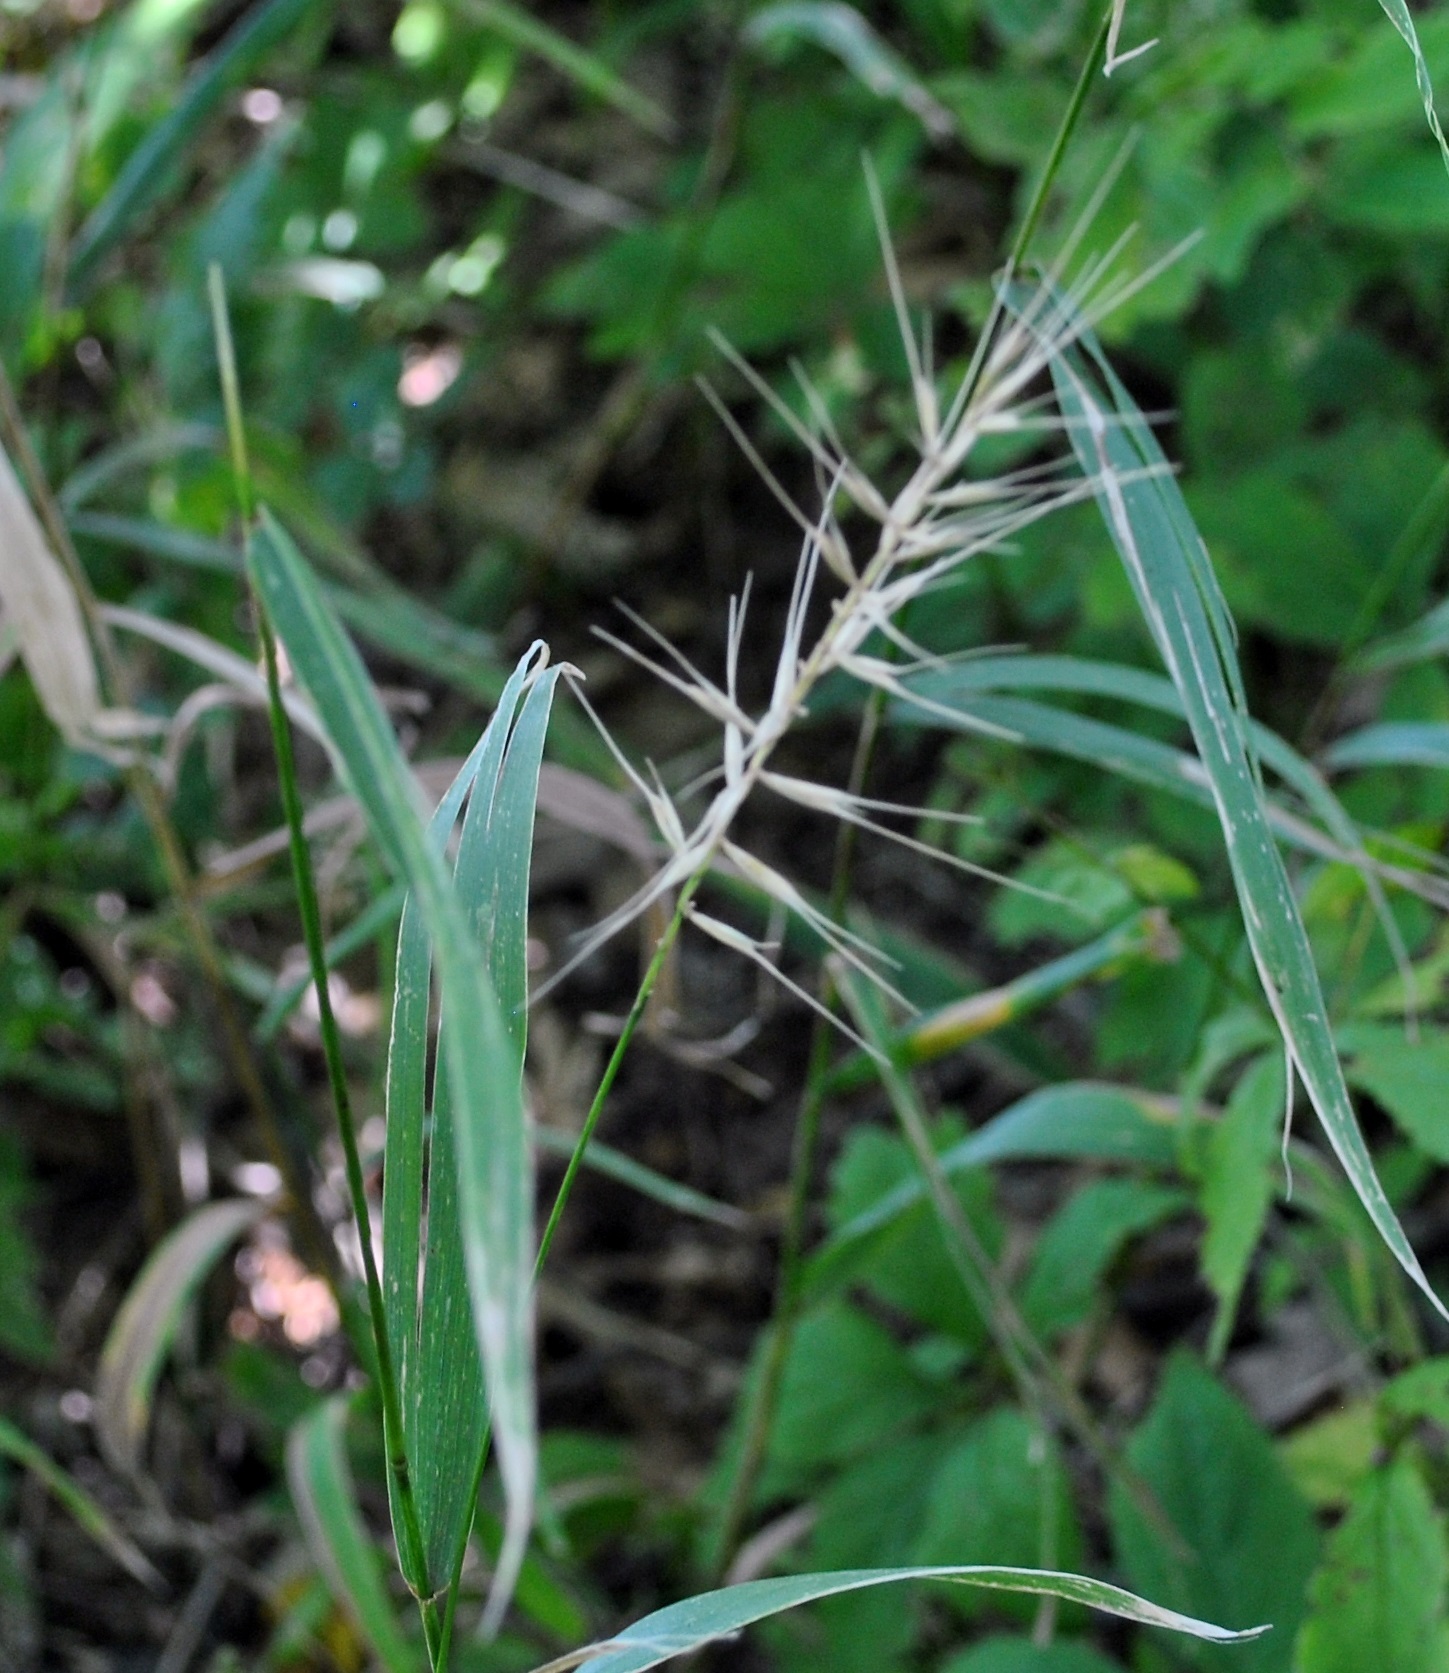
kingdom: Plantae
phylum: Tracheophyta
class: Liliopsida
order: Poales
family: Poaceae
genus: Elymus
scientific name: Elymus hystrix
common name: Bottlebrush grass
